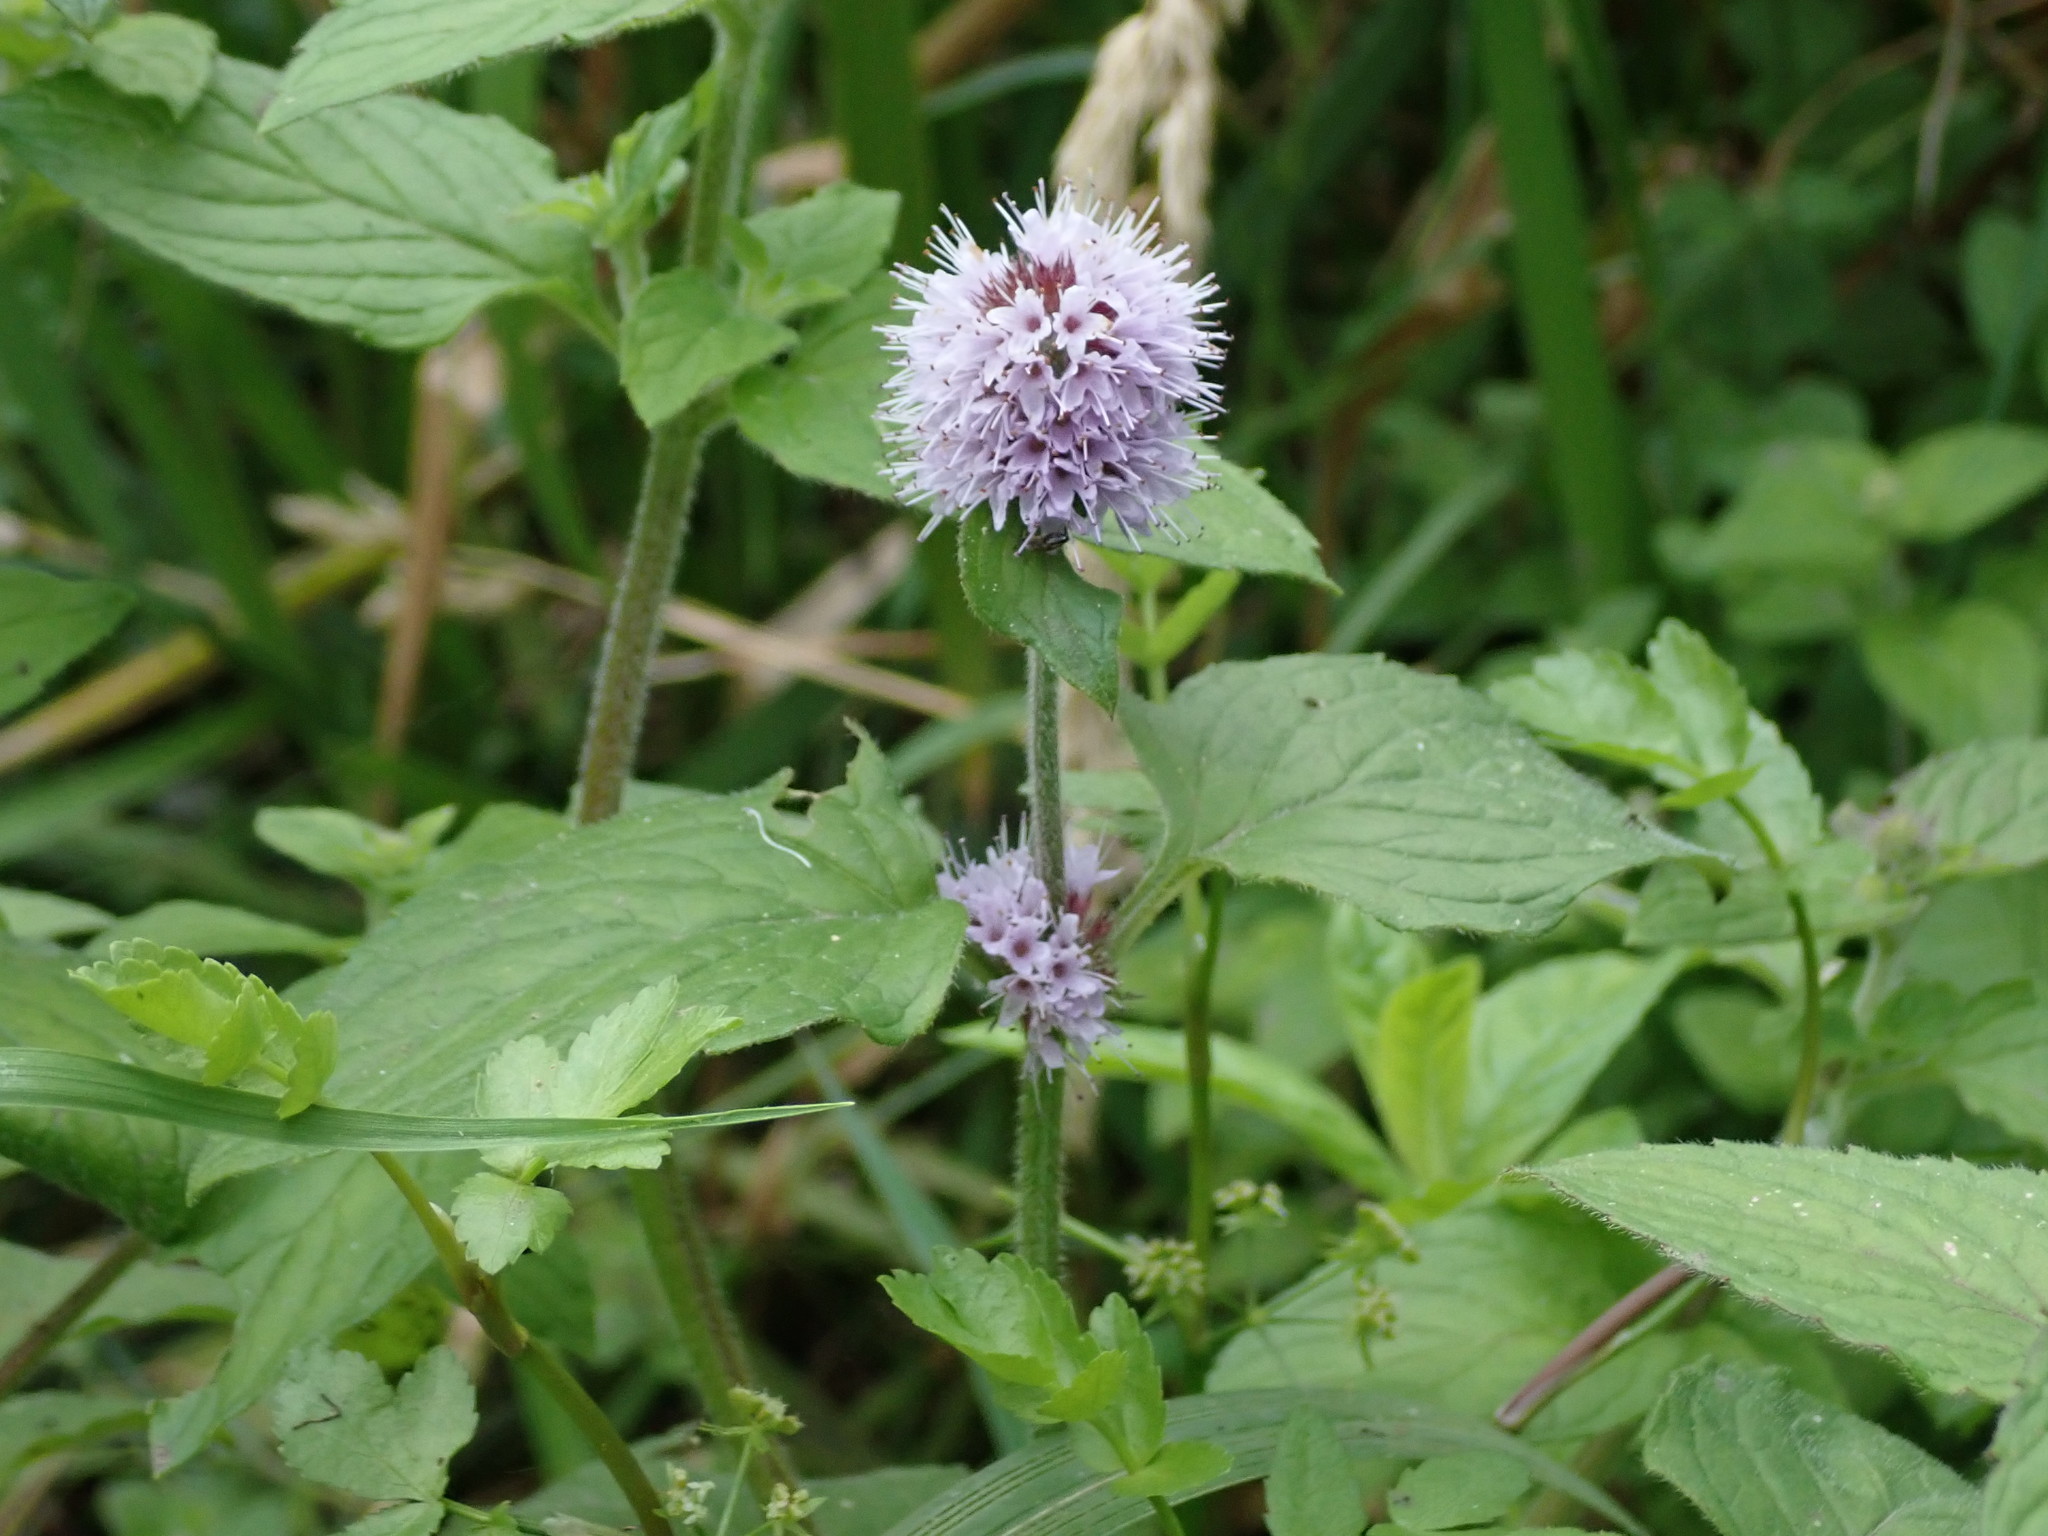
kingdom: Plantae
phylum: Tracheophyta
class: Magnoliopsida
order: Lamiales
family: Lamiaceae
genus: Mentha
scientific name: Mentha aquatica
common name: Water mint
